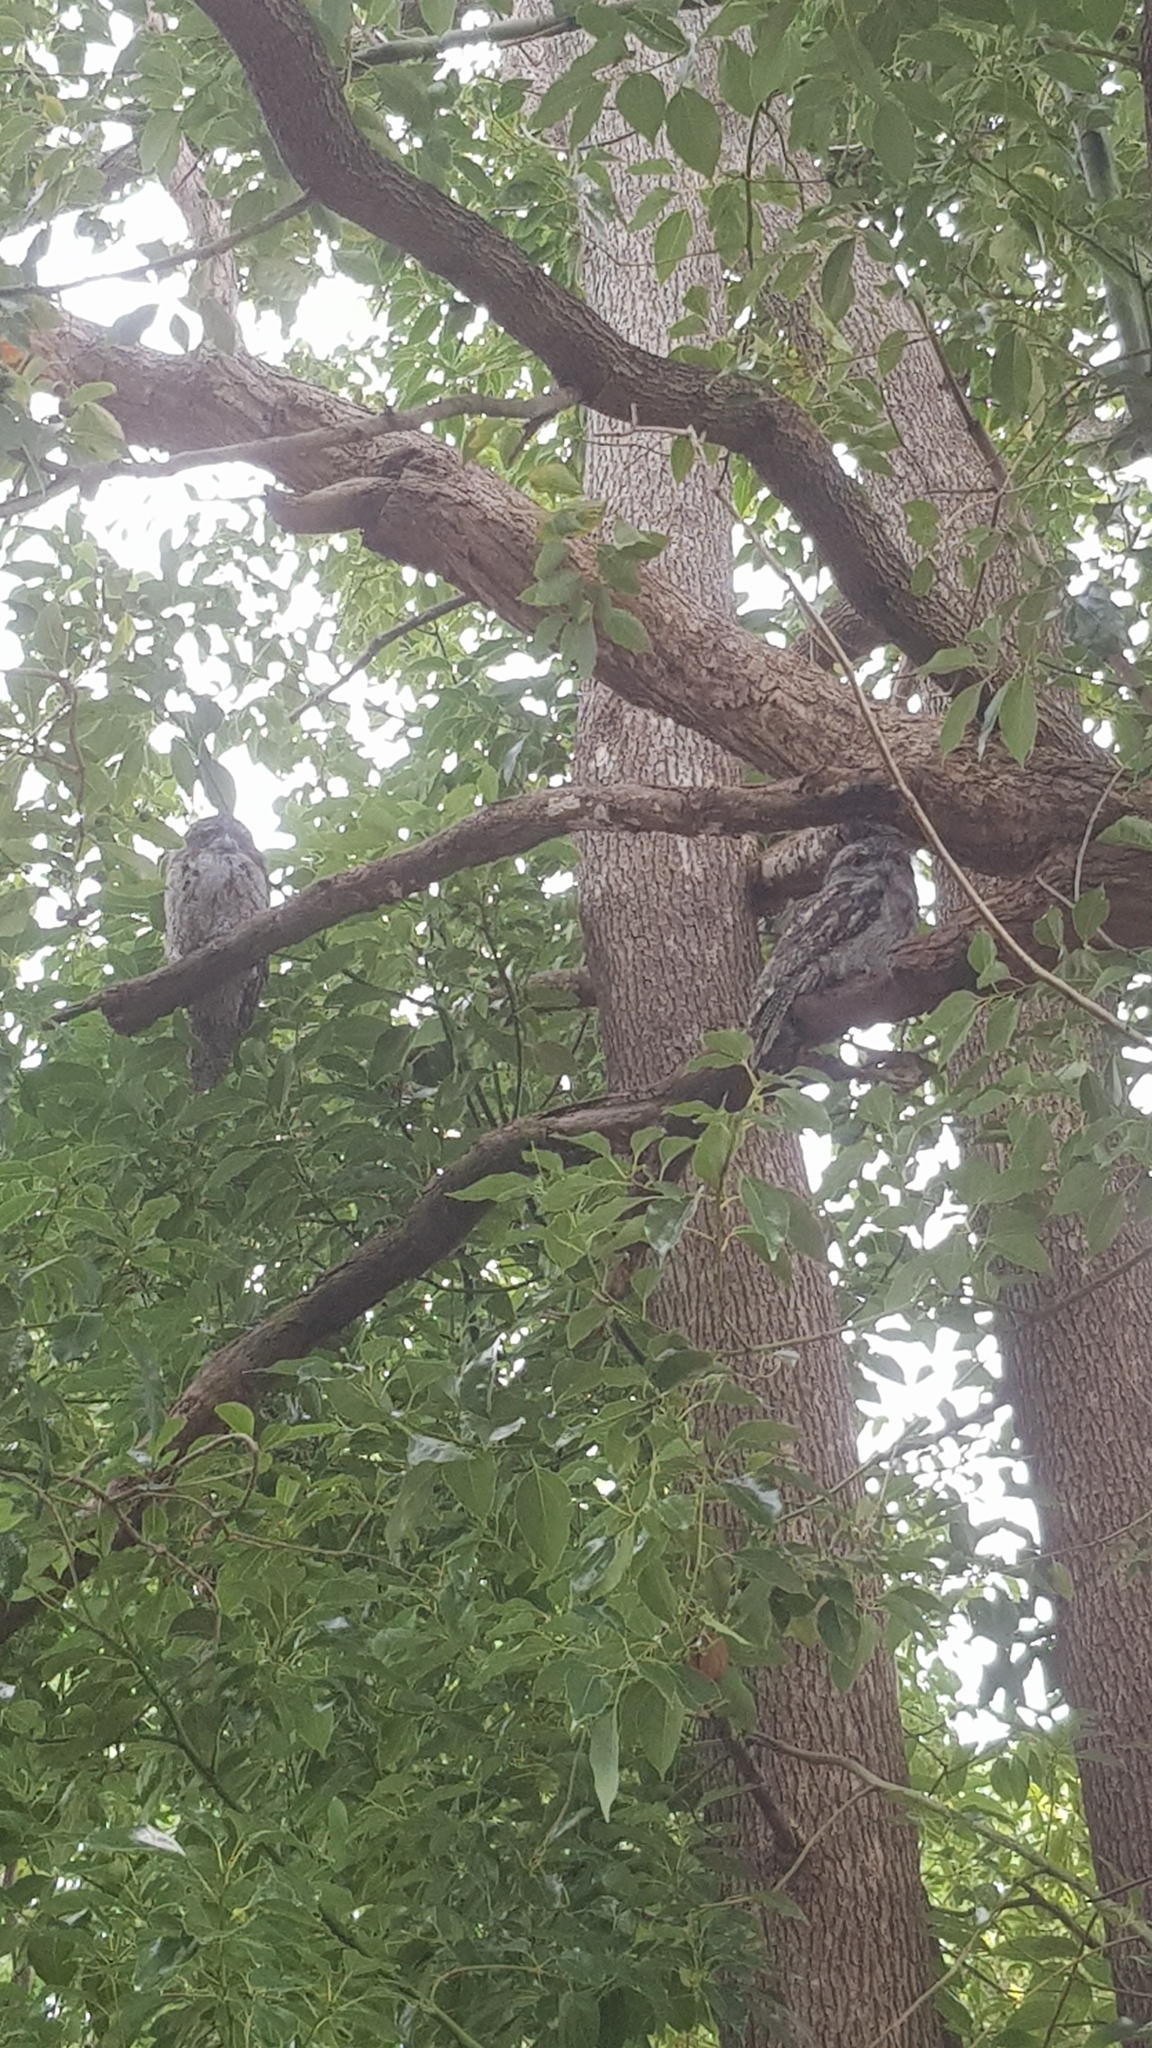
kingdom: Animalia
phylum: Chordata
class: Aves
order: Caprimulgiformes
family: Podargidae
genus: Podargus
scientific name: Podargus strigoides
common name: Tawny frogmouth
